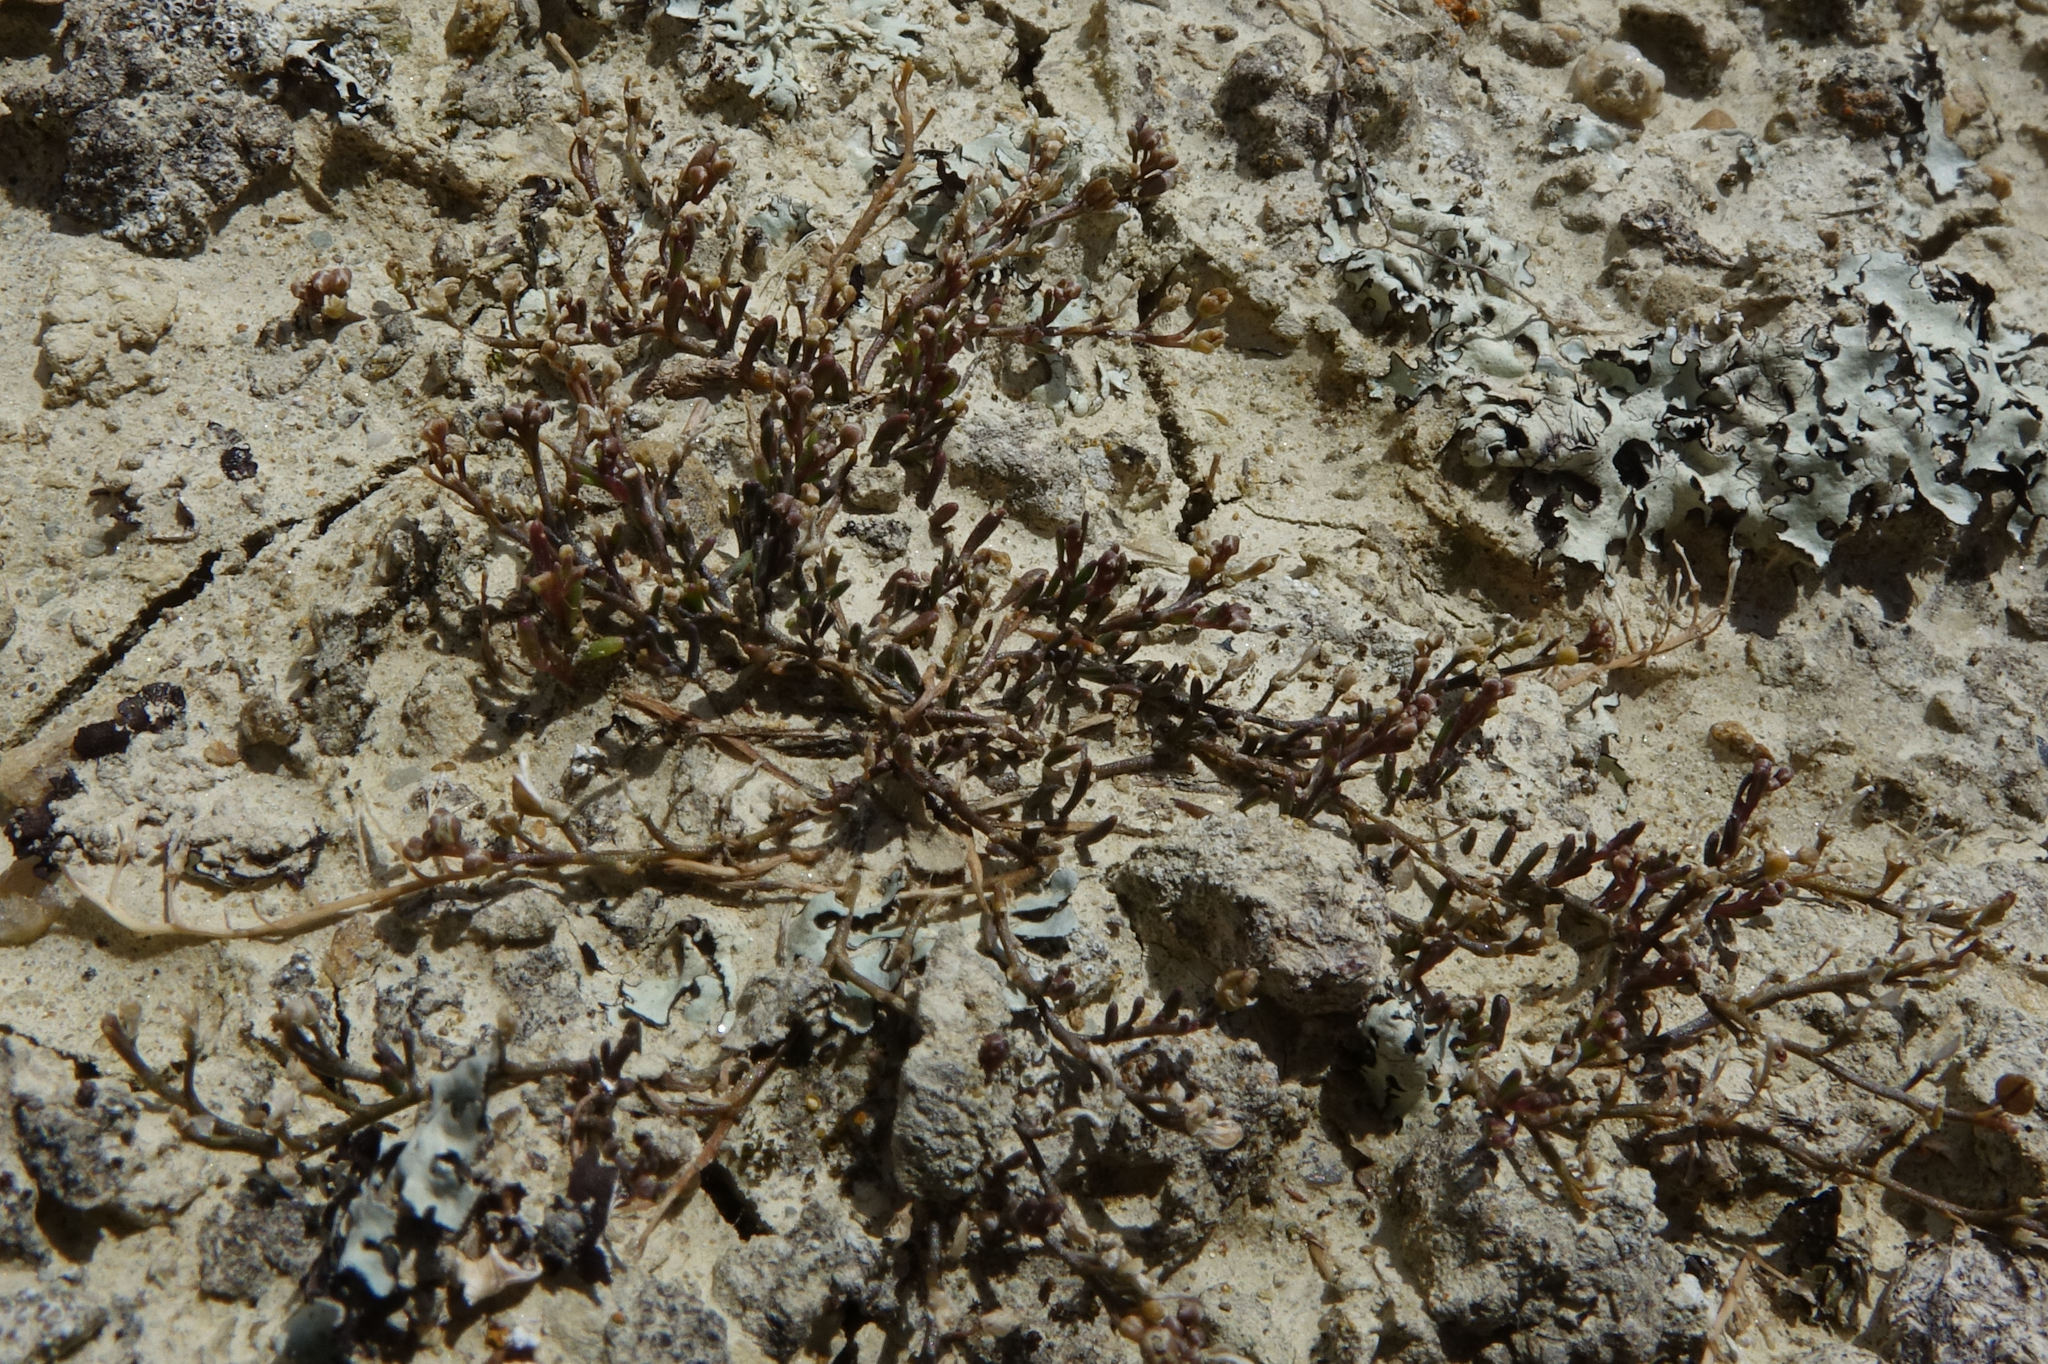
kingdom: Plantae
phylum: Tracheophyta
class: Magnoliopsida
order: Brassicales
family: Brassicaceae
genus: Lepidium
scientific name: Lepidium kirkii
